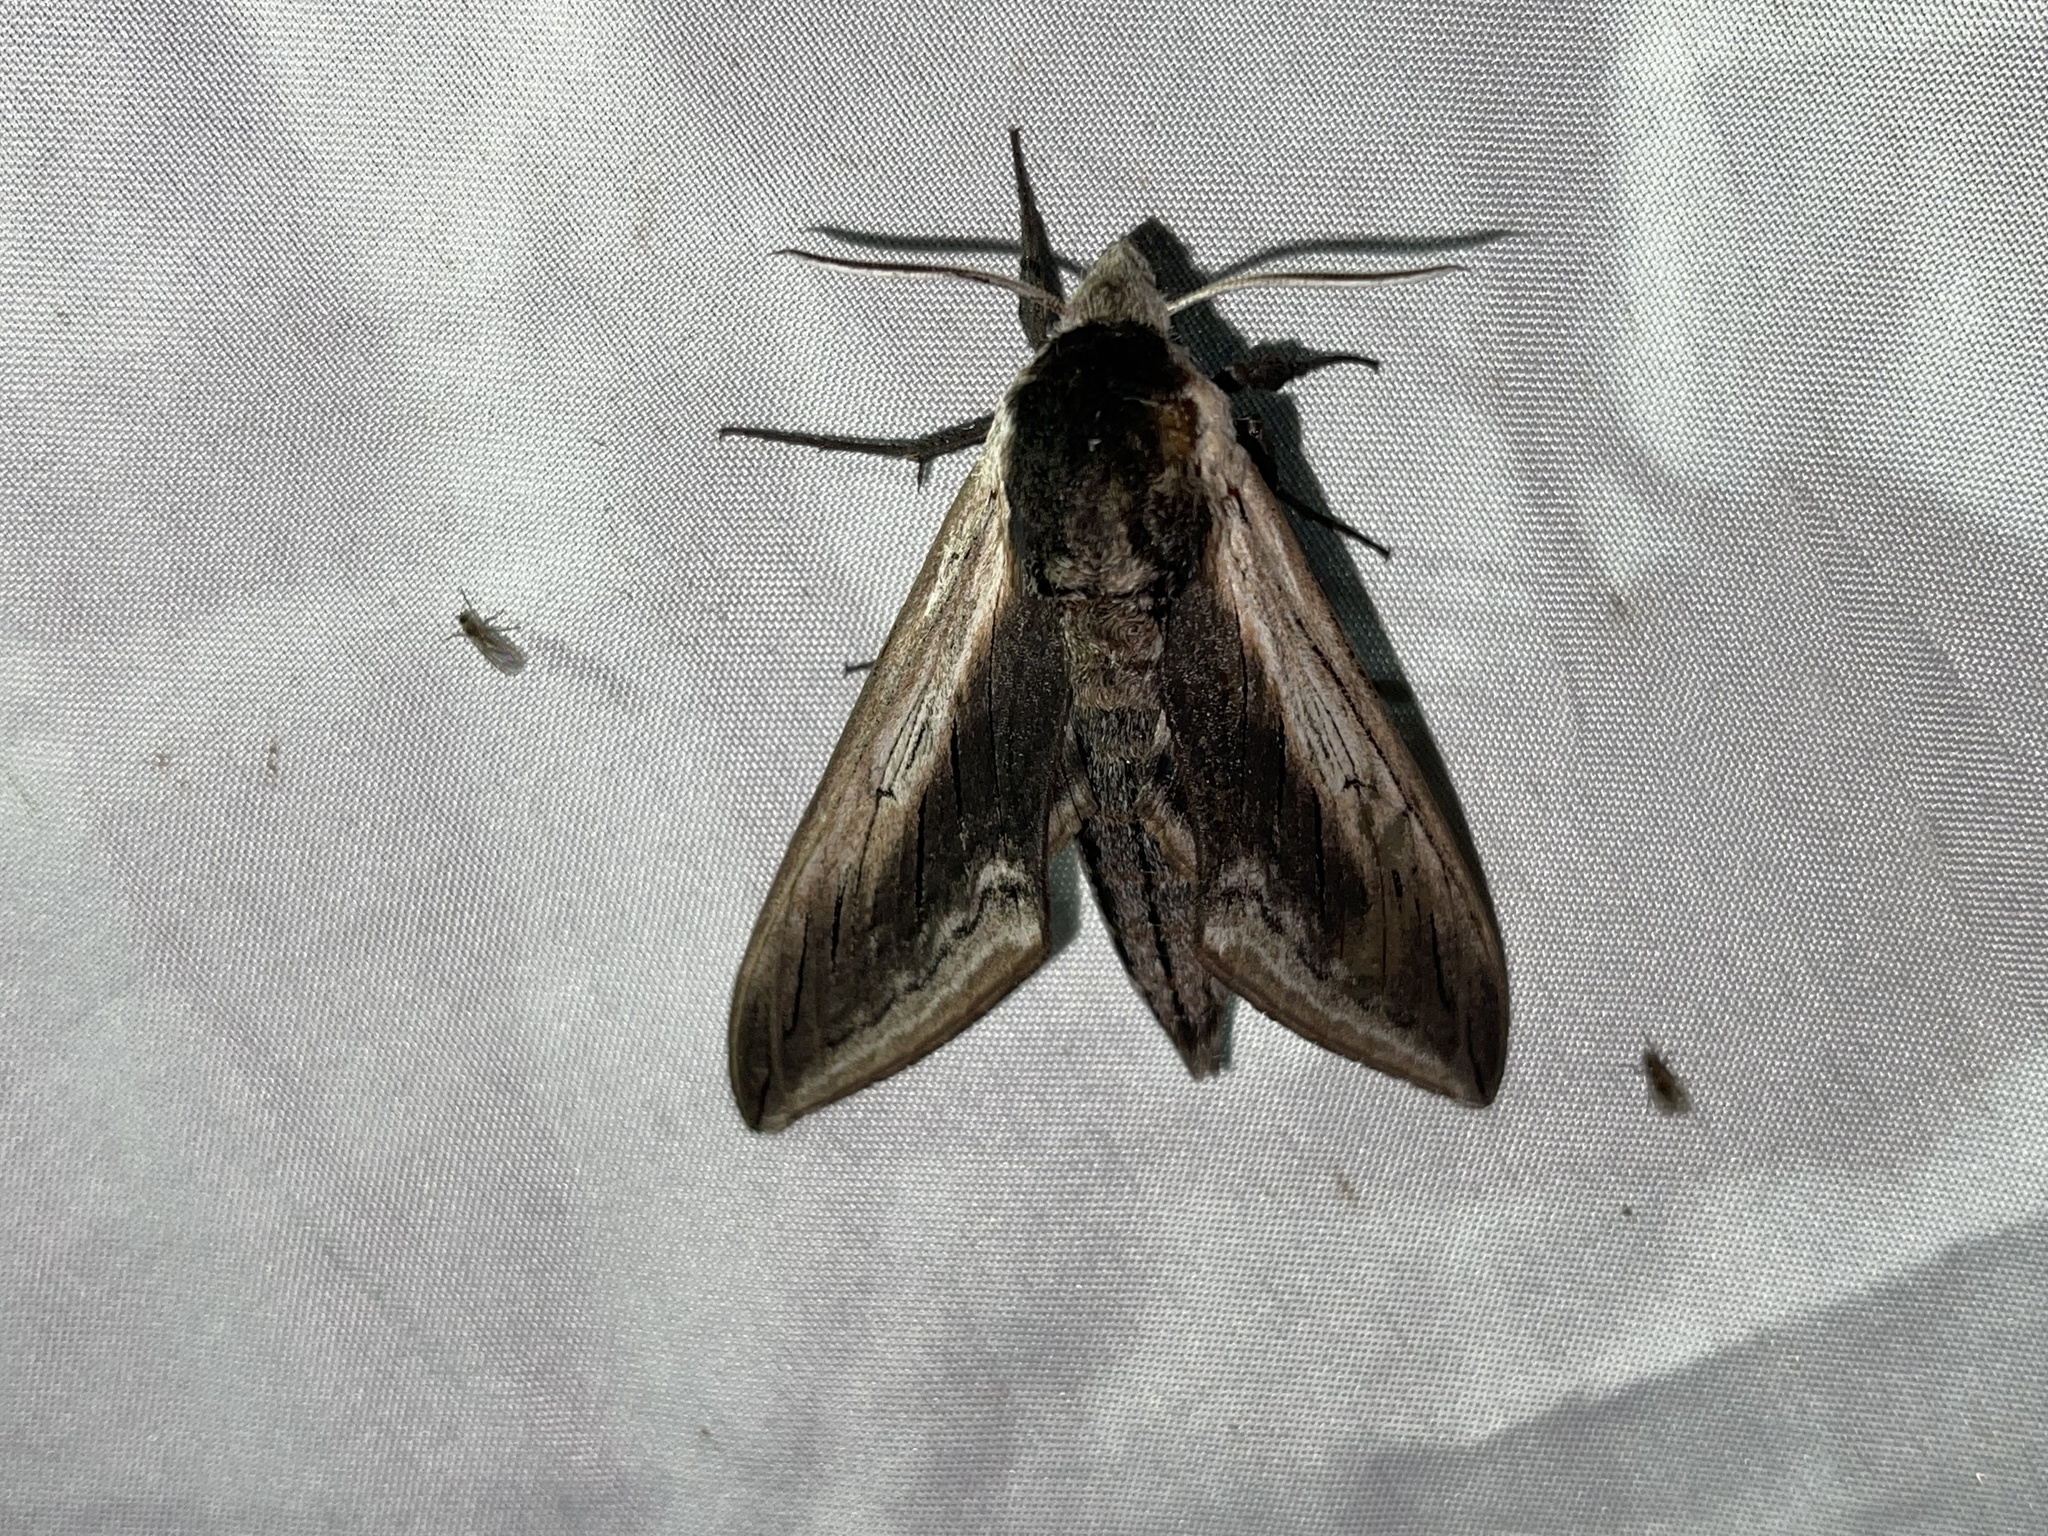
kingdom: Animalia
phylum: Arthropoda
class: Insecta
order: Lepidoptera
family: Sphingidae
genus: Sphinx
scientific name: Sphinx drupiferarum
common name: Wild cherry sphinx
